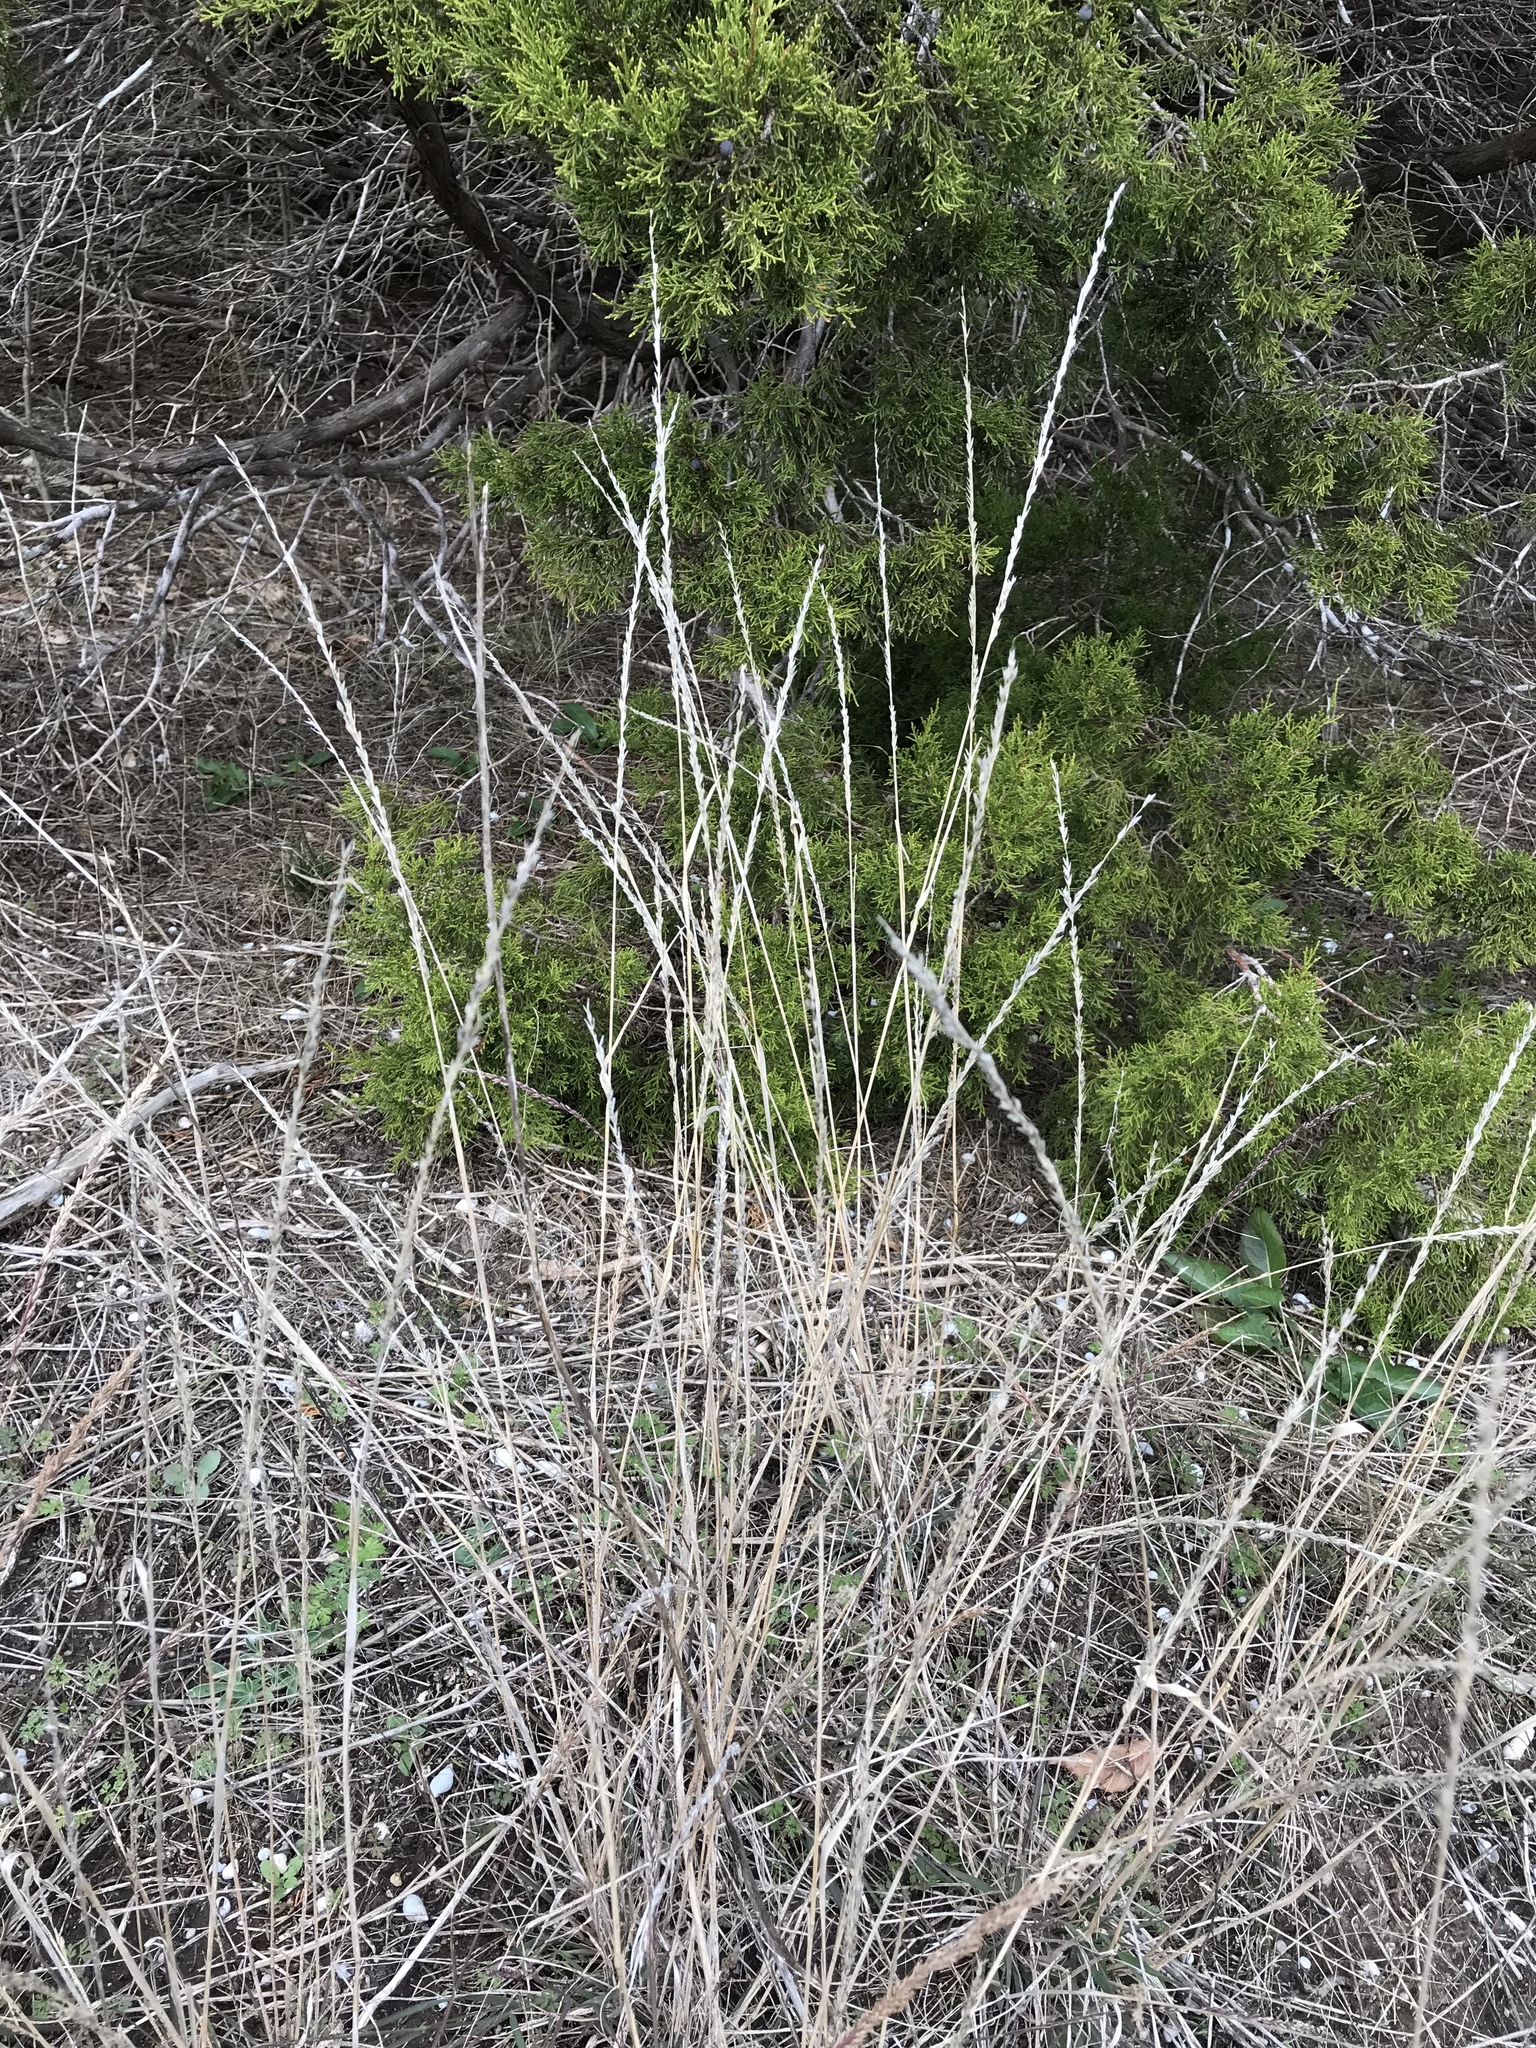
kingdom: Plantae
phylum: Tracheophyta
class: Liliopsida
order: Poales
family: Poaceae
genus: Tridentopsis
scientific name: Tridentopsis mutica
